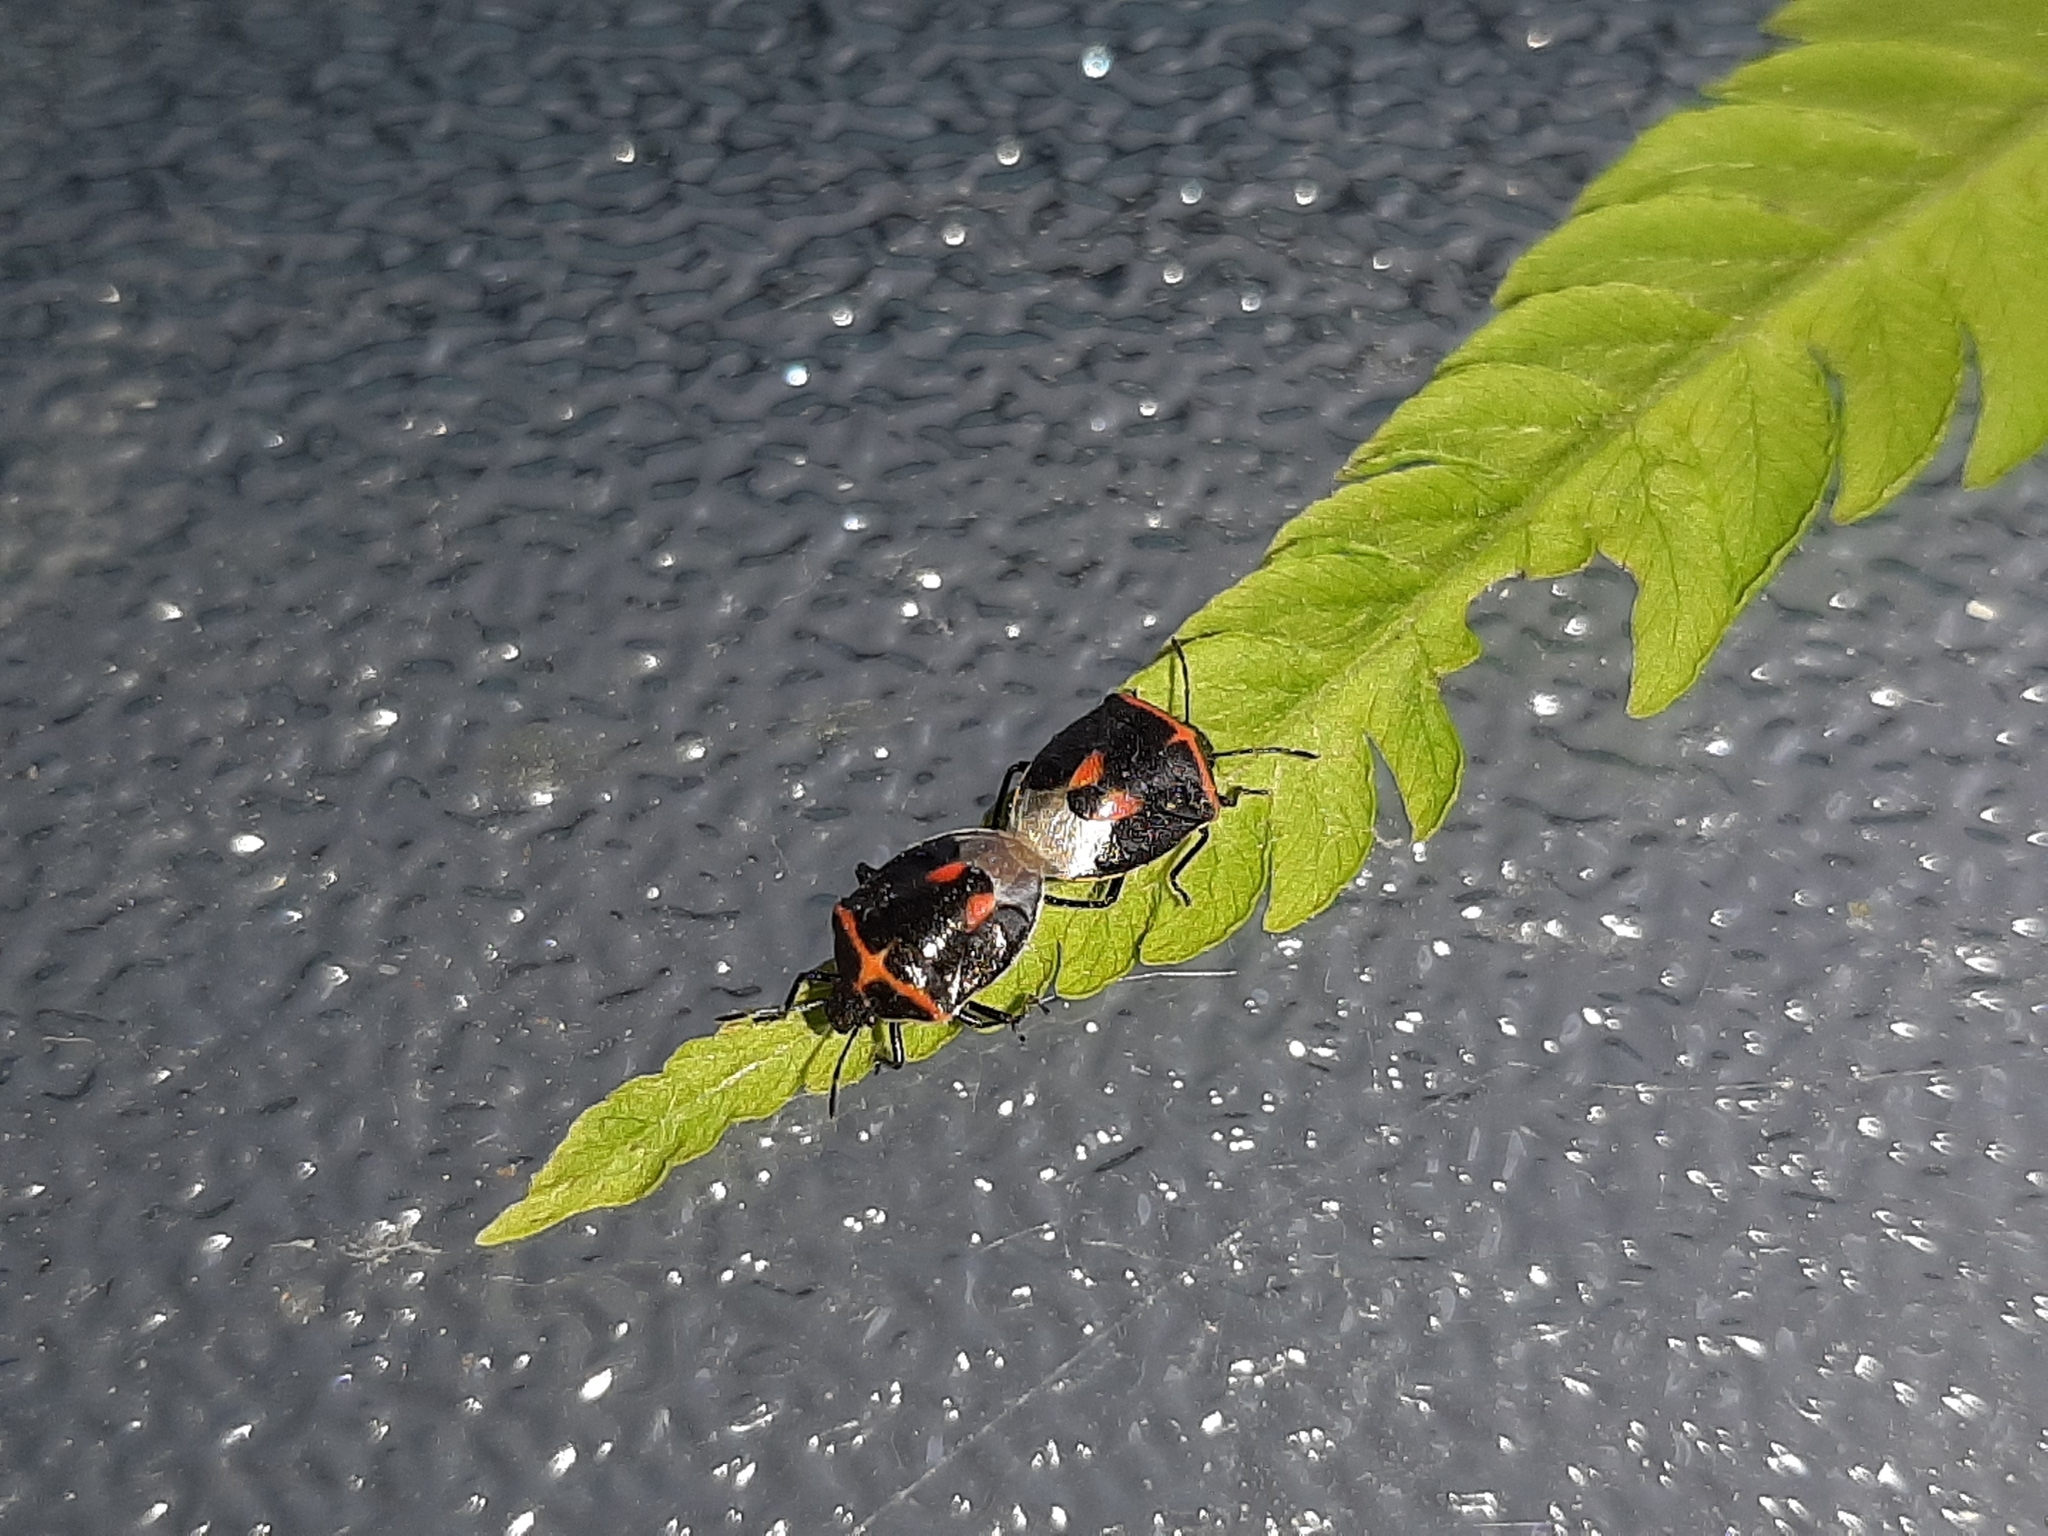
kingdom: Animalia
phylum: Arthropoda
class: Insecta
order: Hemiptera
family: Pentatomidae
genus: Cosmopepla
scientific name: Cosmopepla lintneriana
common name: Twice-stabbed stink bug
